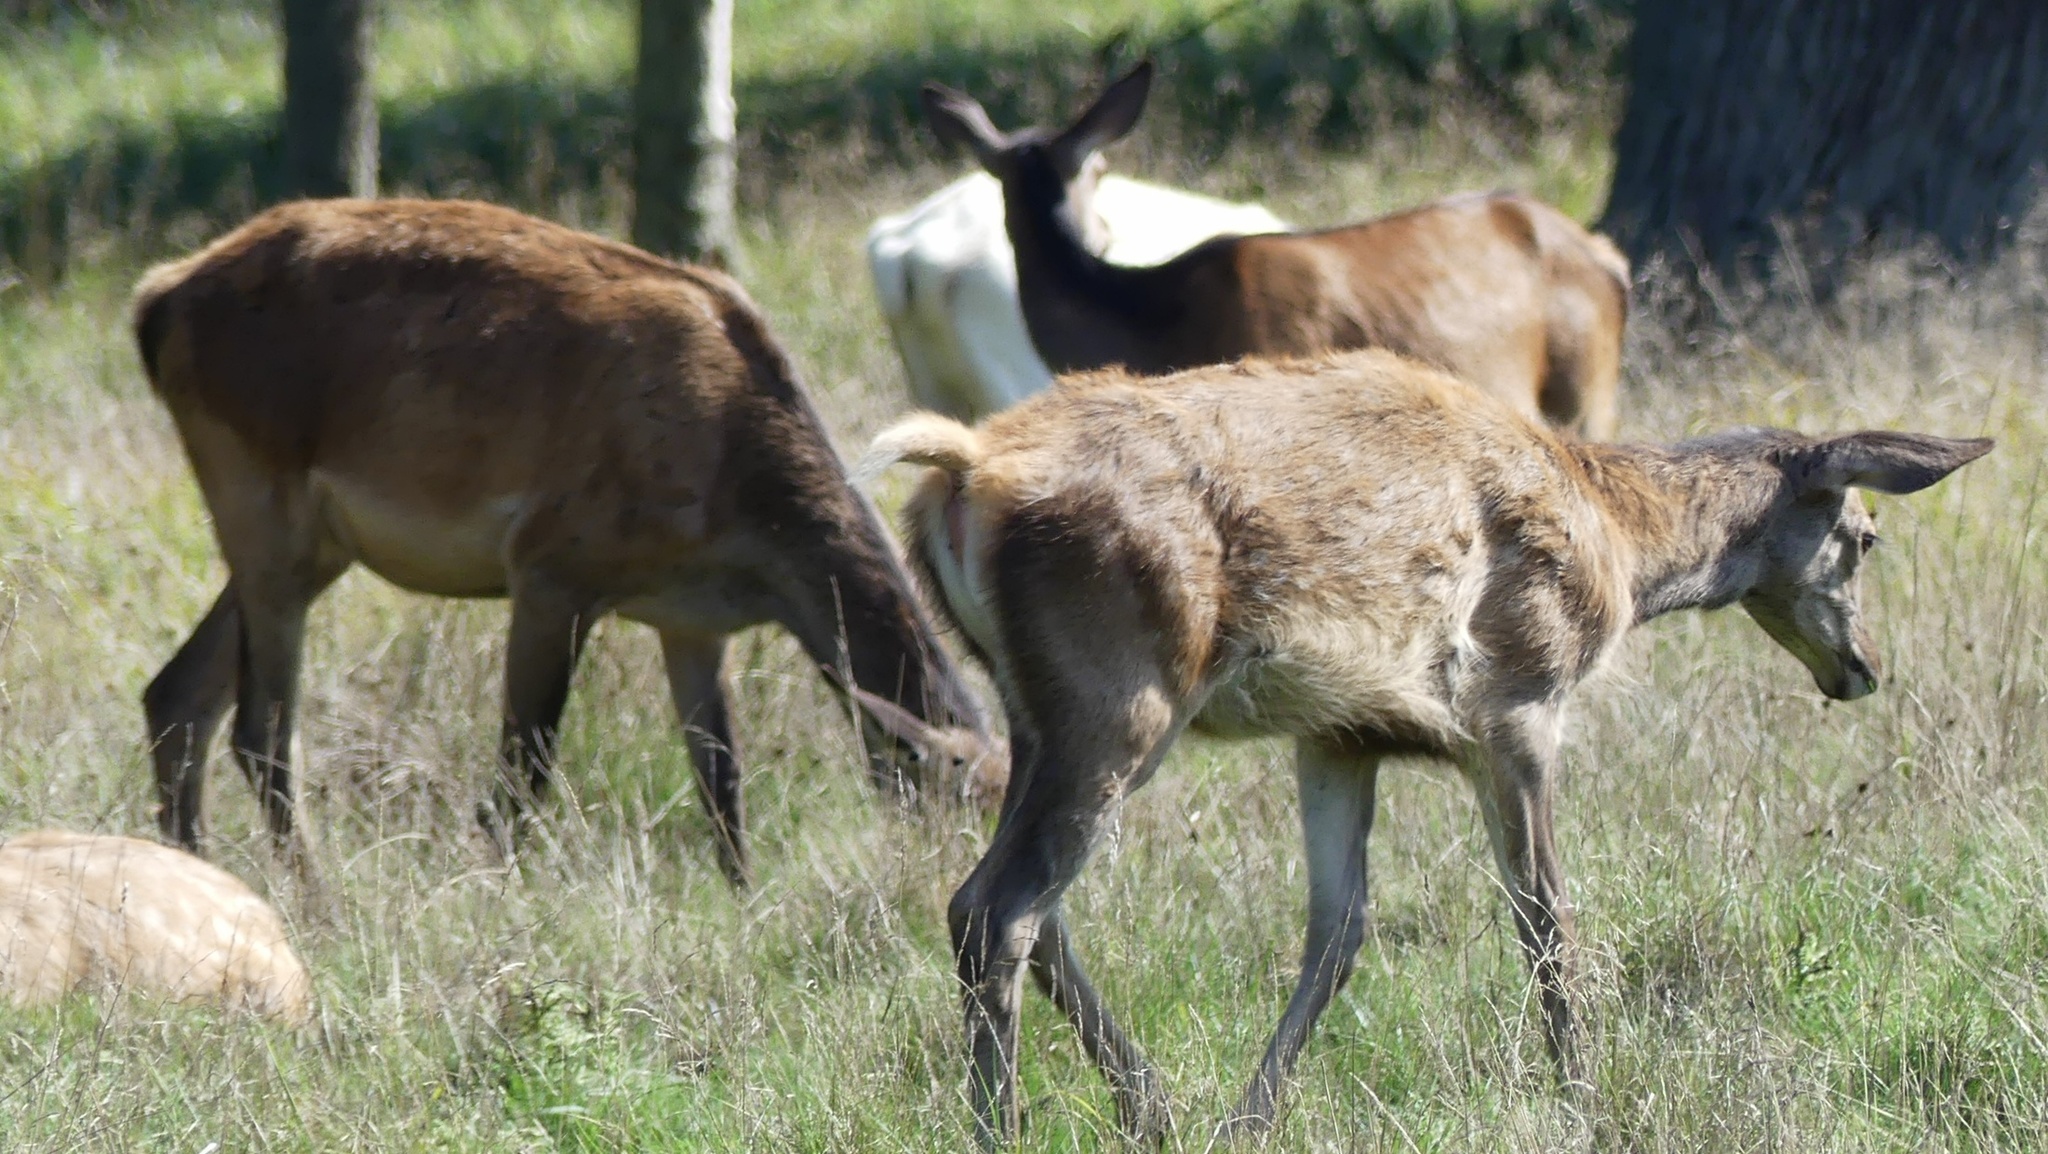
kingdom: Animalia
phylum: Chordata
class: Mammalia
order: Artiodactyla
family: Cervidae
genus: Cervus
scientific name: Cervus elaphus
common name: Red deer
